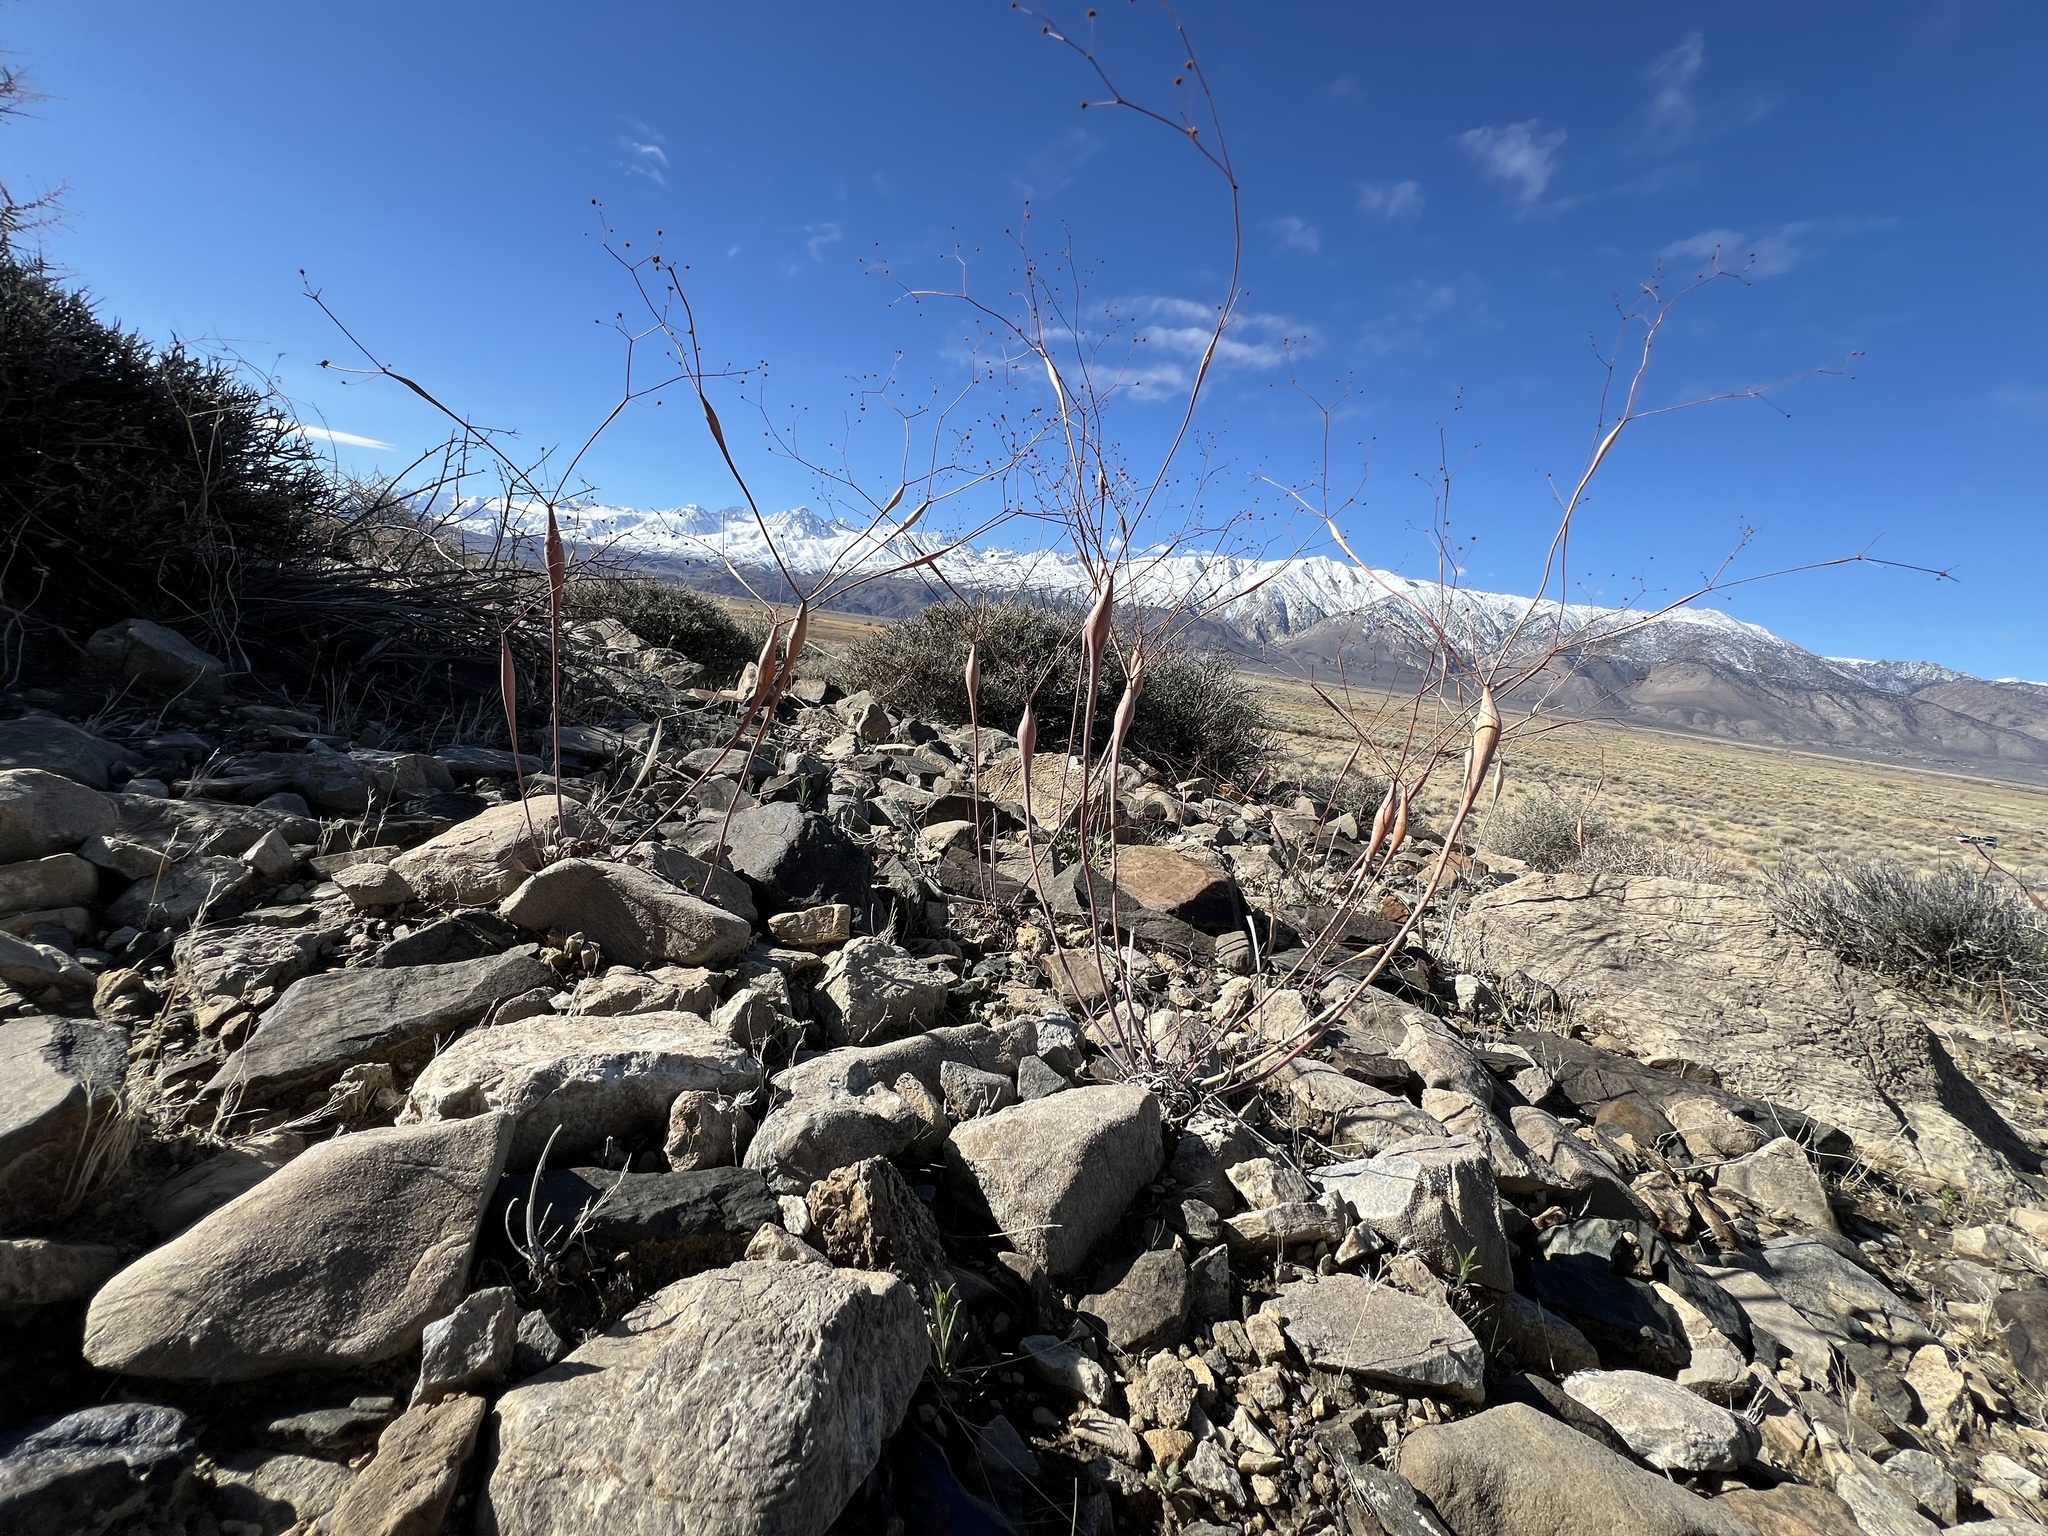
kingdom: Plantae
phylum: Tracheophyta
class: Magnoliopsida
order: Caryophyllales
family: Polygonaceae
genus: Eriogonum
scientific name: Eriogonum inflatum
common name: Desert trumpet
